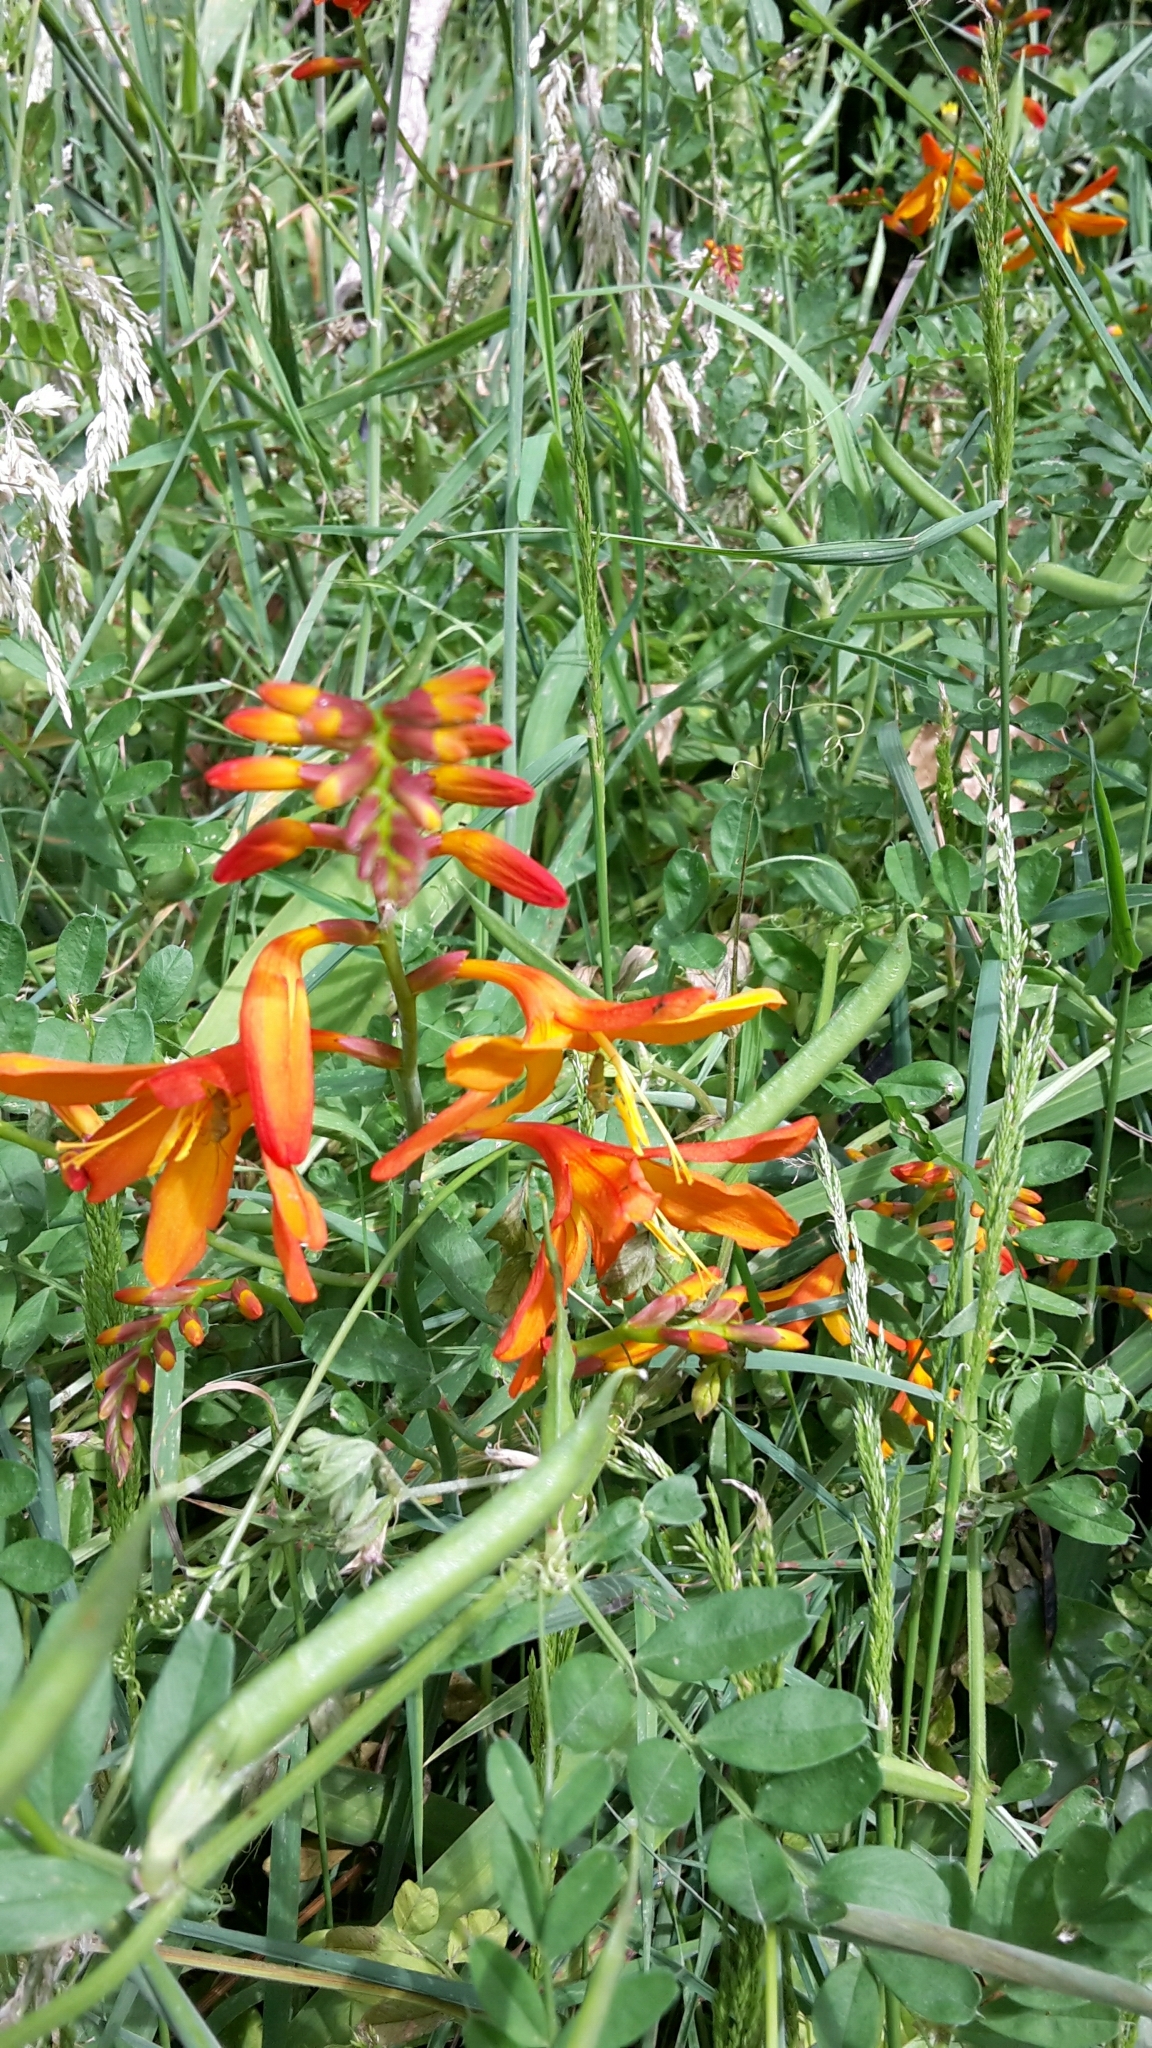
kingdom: Plantae
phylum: Tracheophyta
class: Liliopsida
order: Asparagales
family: Iridaceae
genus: Crocosmia
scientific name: Crocosmia crocosmiiflora
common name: Montbretia
